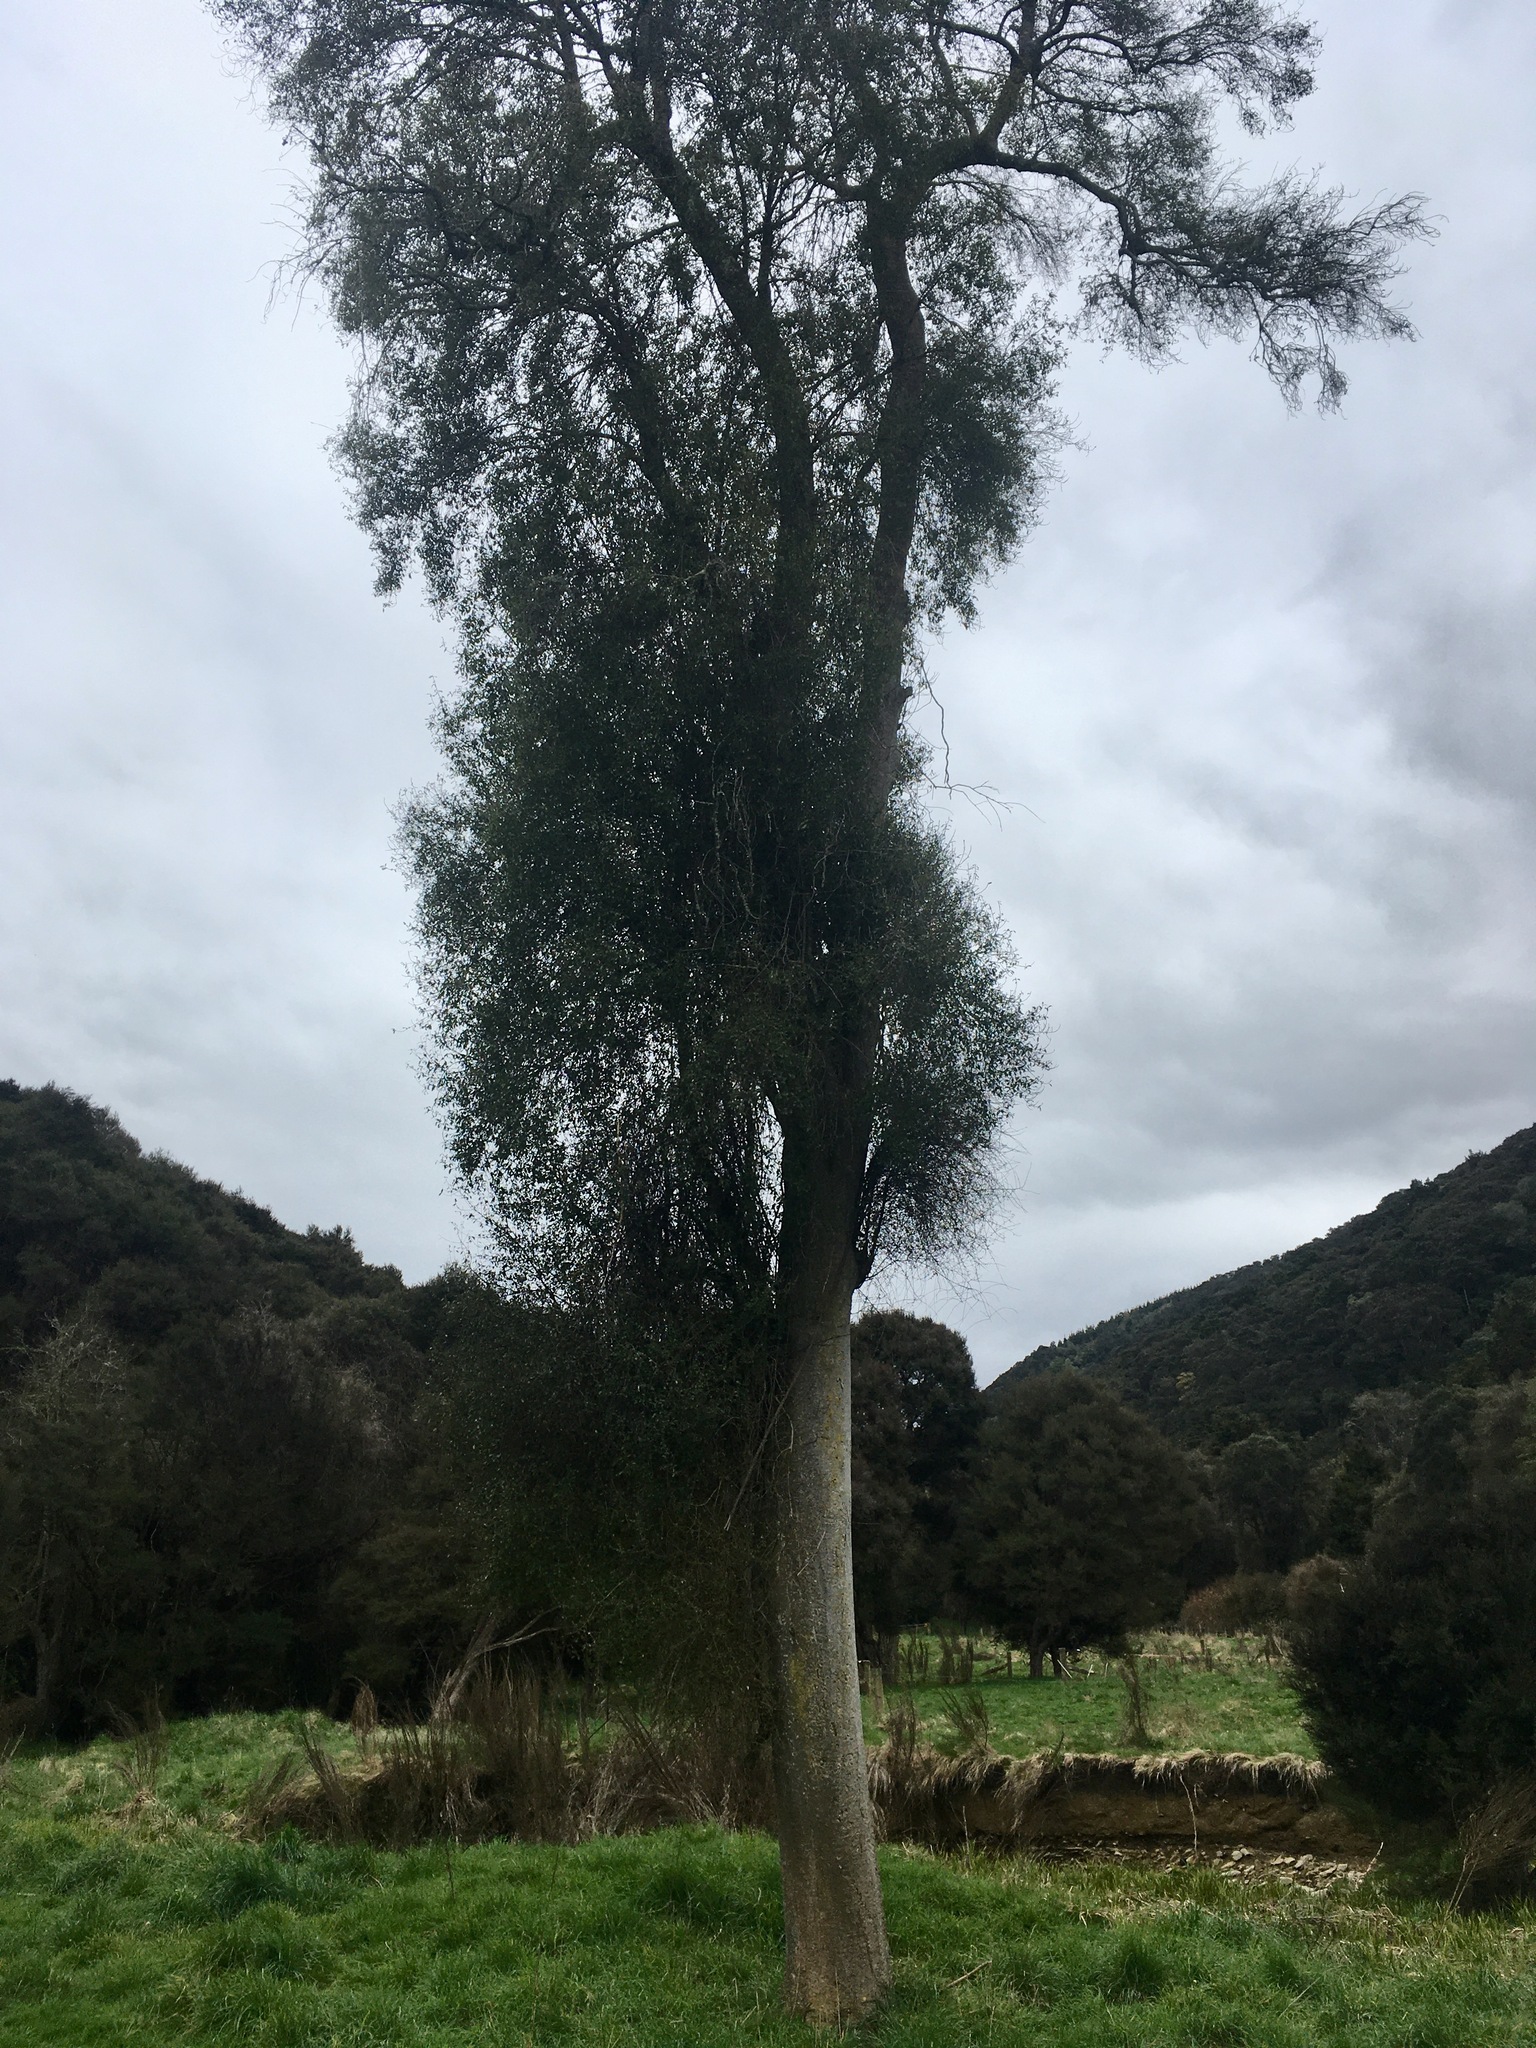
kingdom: Plantae
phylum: Tracheophyta
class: Magnoliopsida
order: Malvales
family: Malvaceae
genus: Hoheria
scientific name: Hoheria angustifolia
